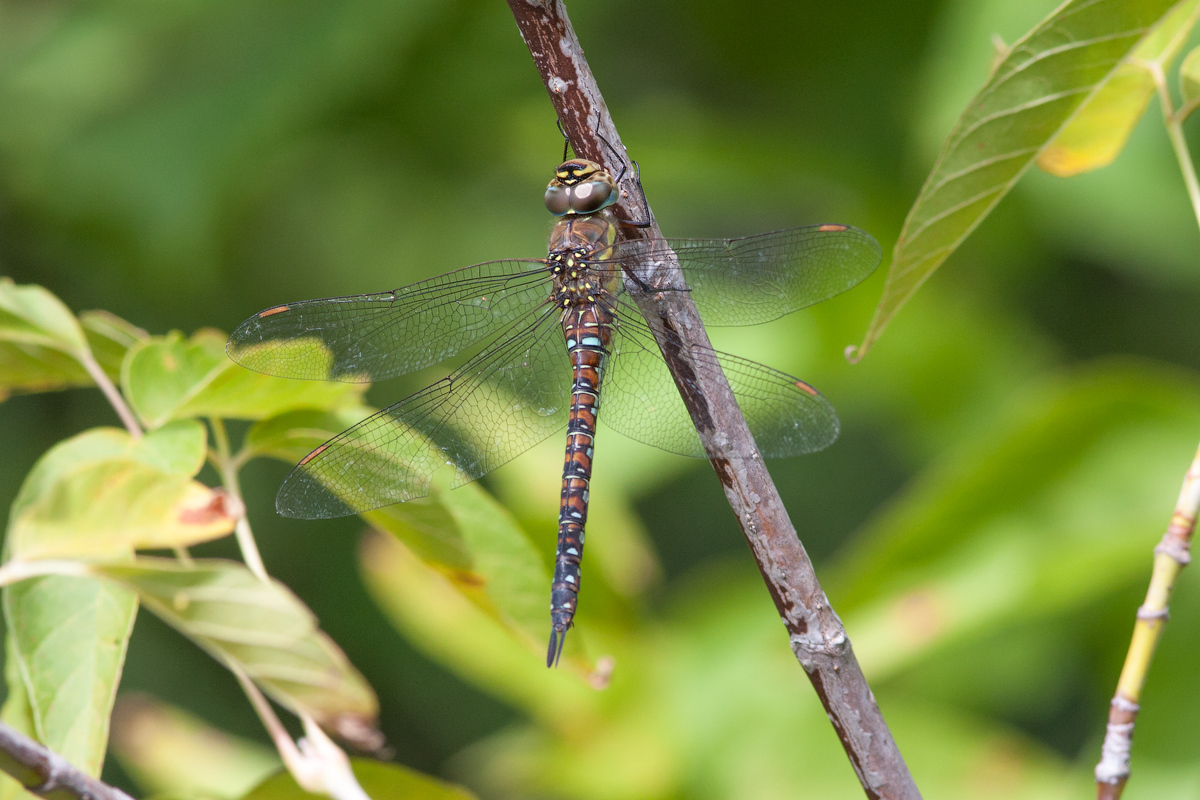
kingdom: Animalia
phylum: Arthropoda
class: Insecta
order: Odonata
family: Aeshnidae
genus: Aeshna
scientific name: Aeshna mixta
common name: Migrant hawker
